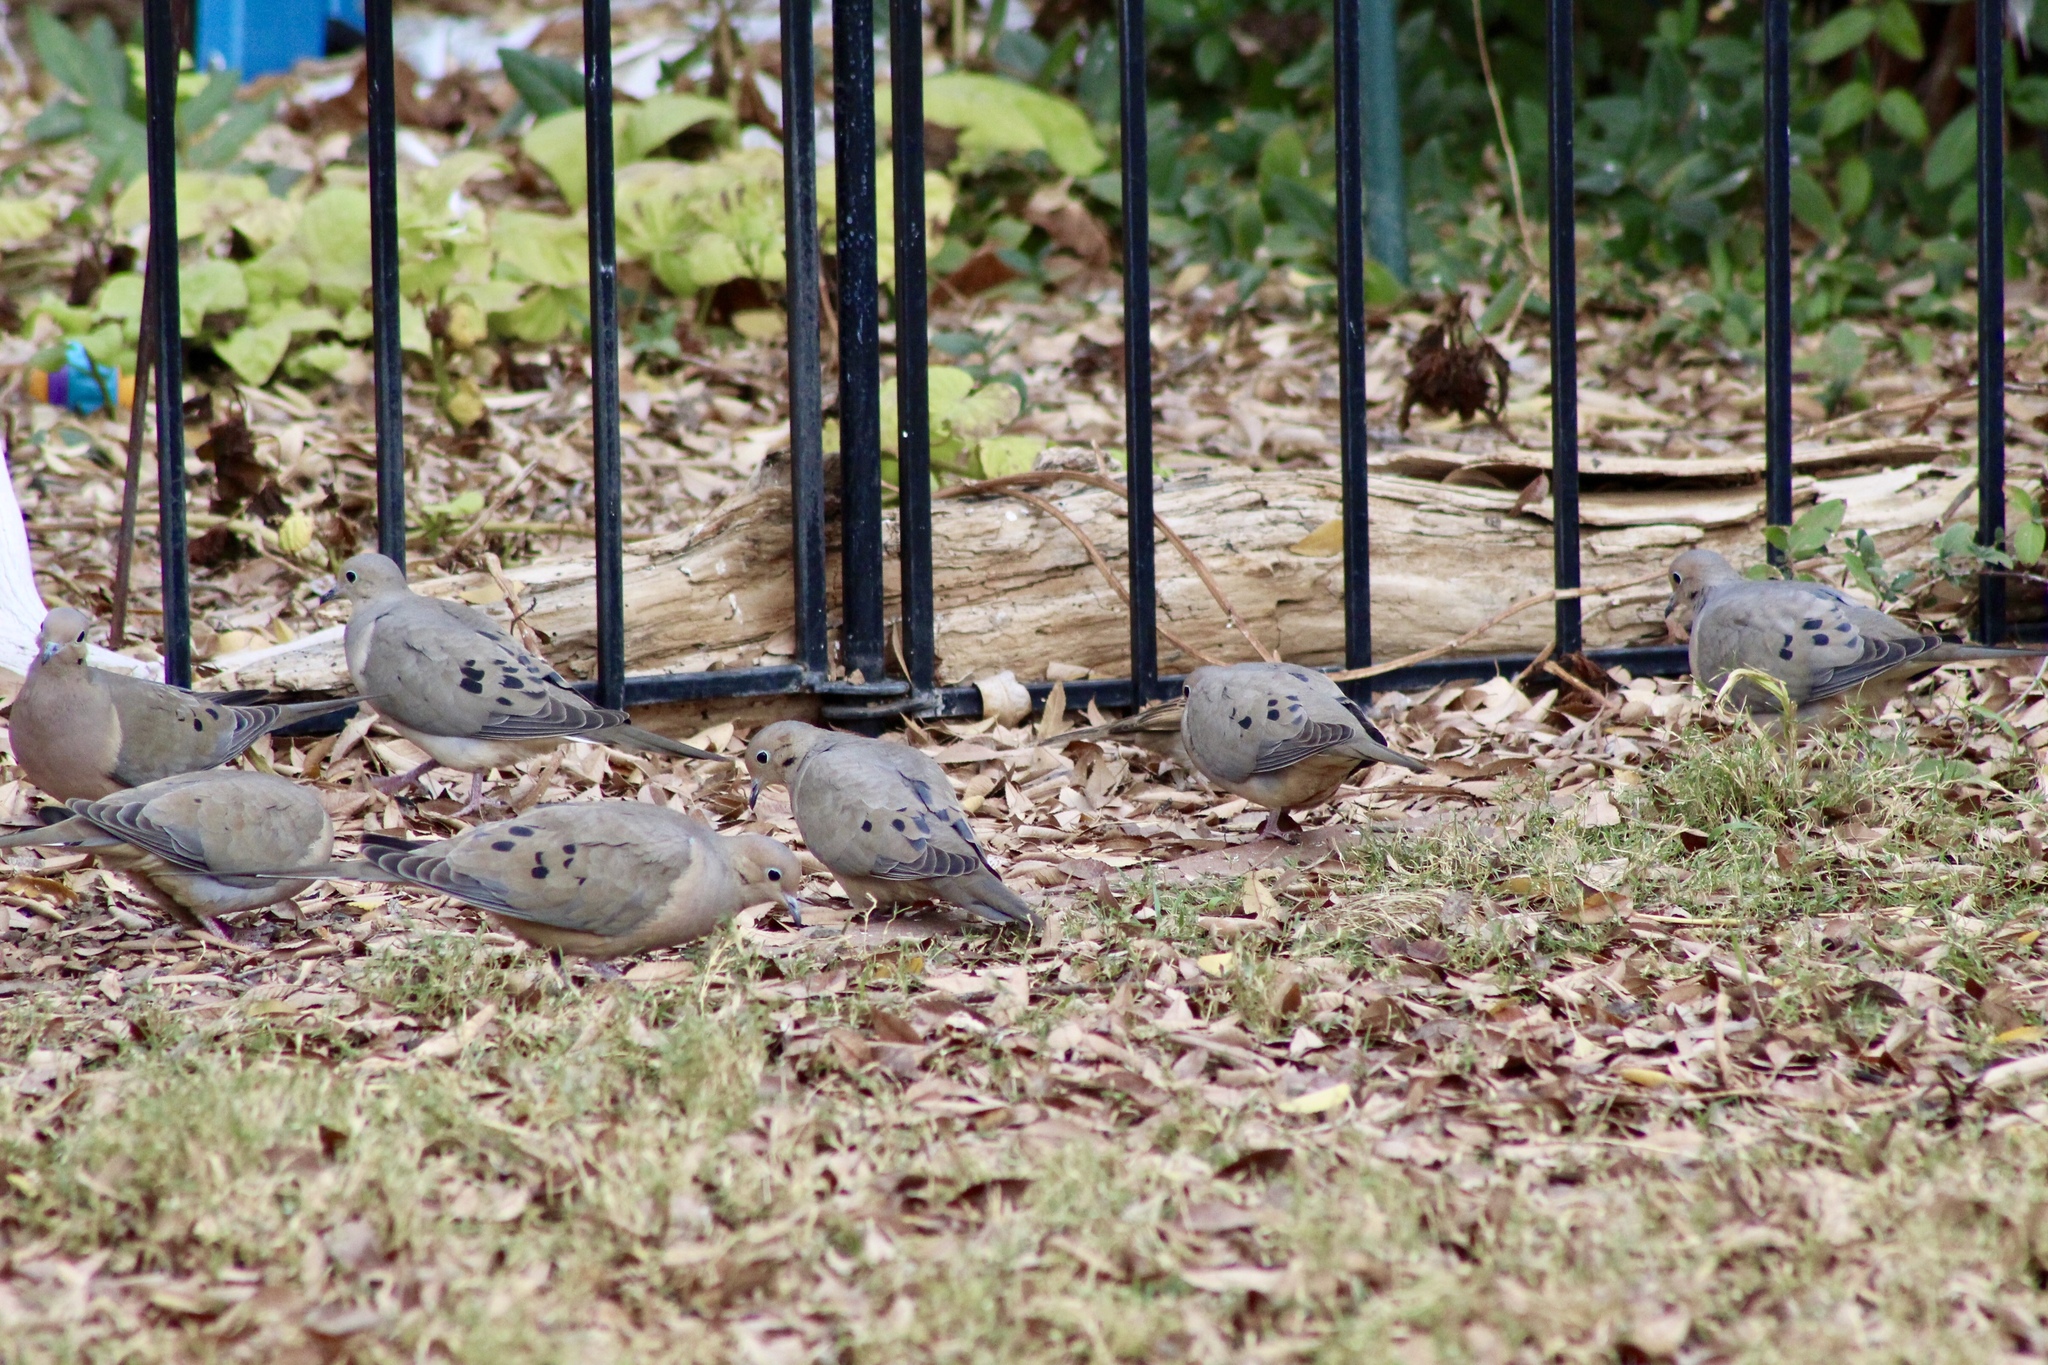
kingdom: Animalia
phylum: Chordata
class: Aves
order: Columbiformes
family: Columbidae
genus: Zenaida
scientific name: Zenaida macroura
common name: Mourning dove
